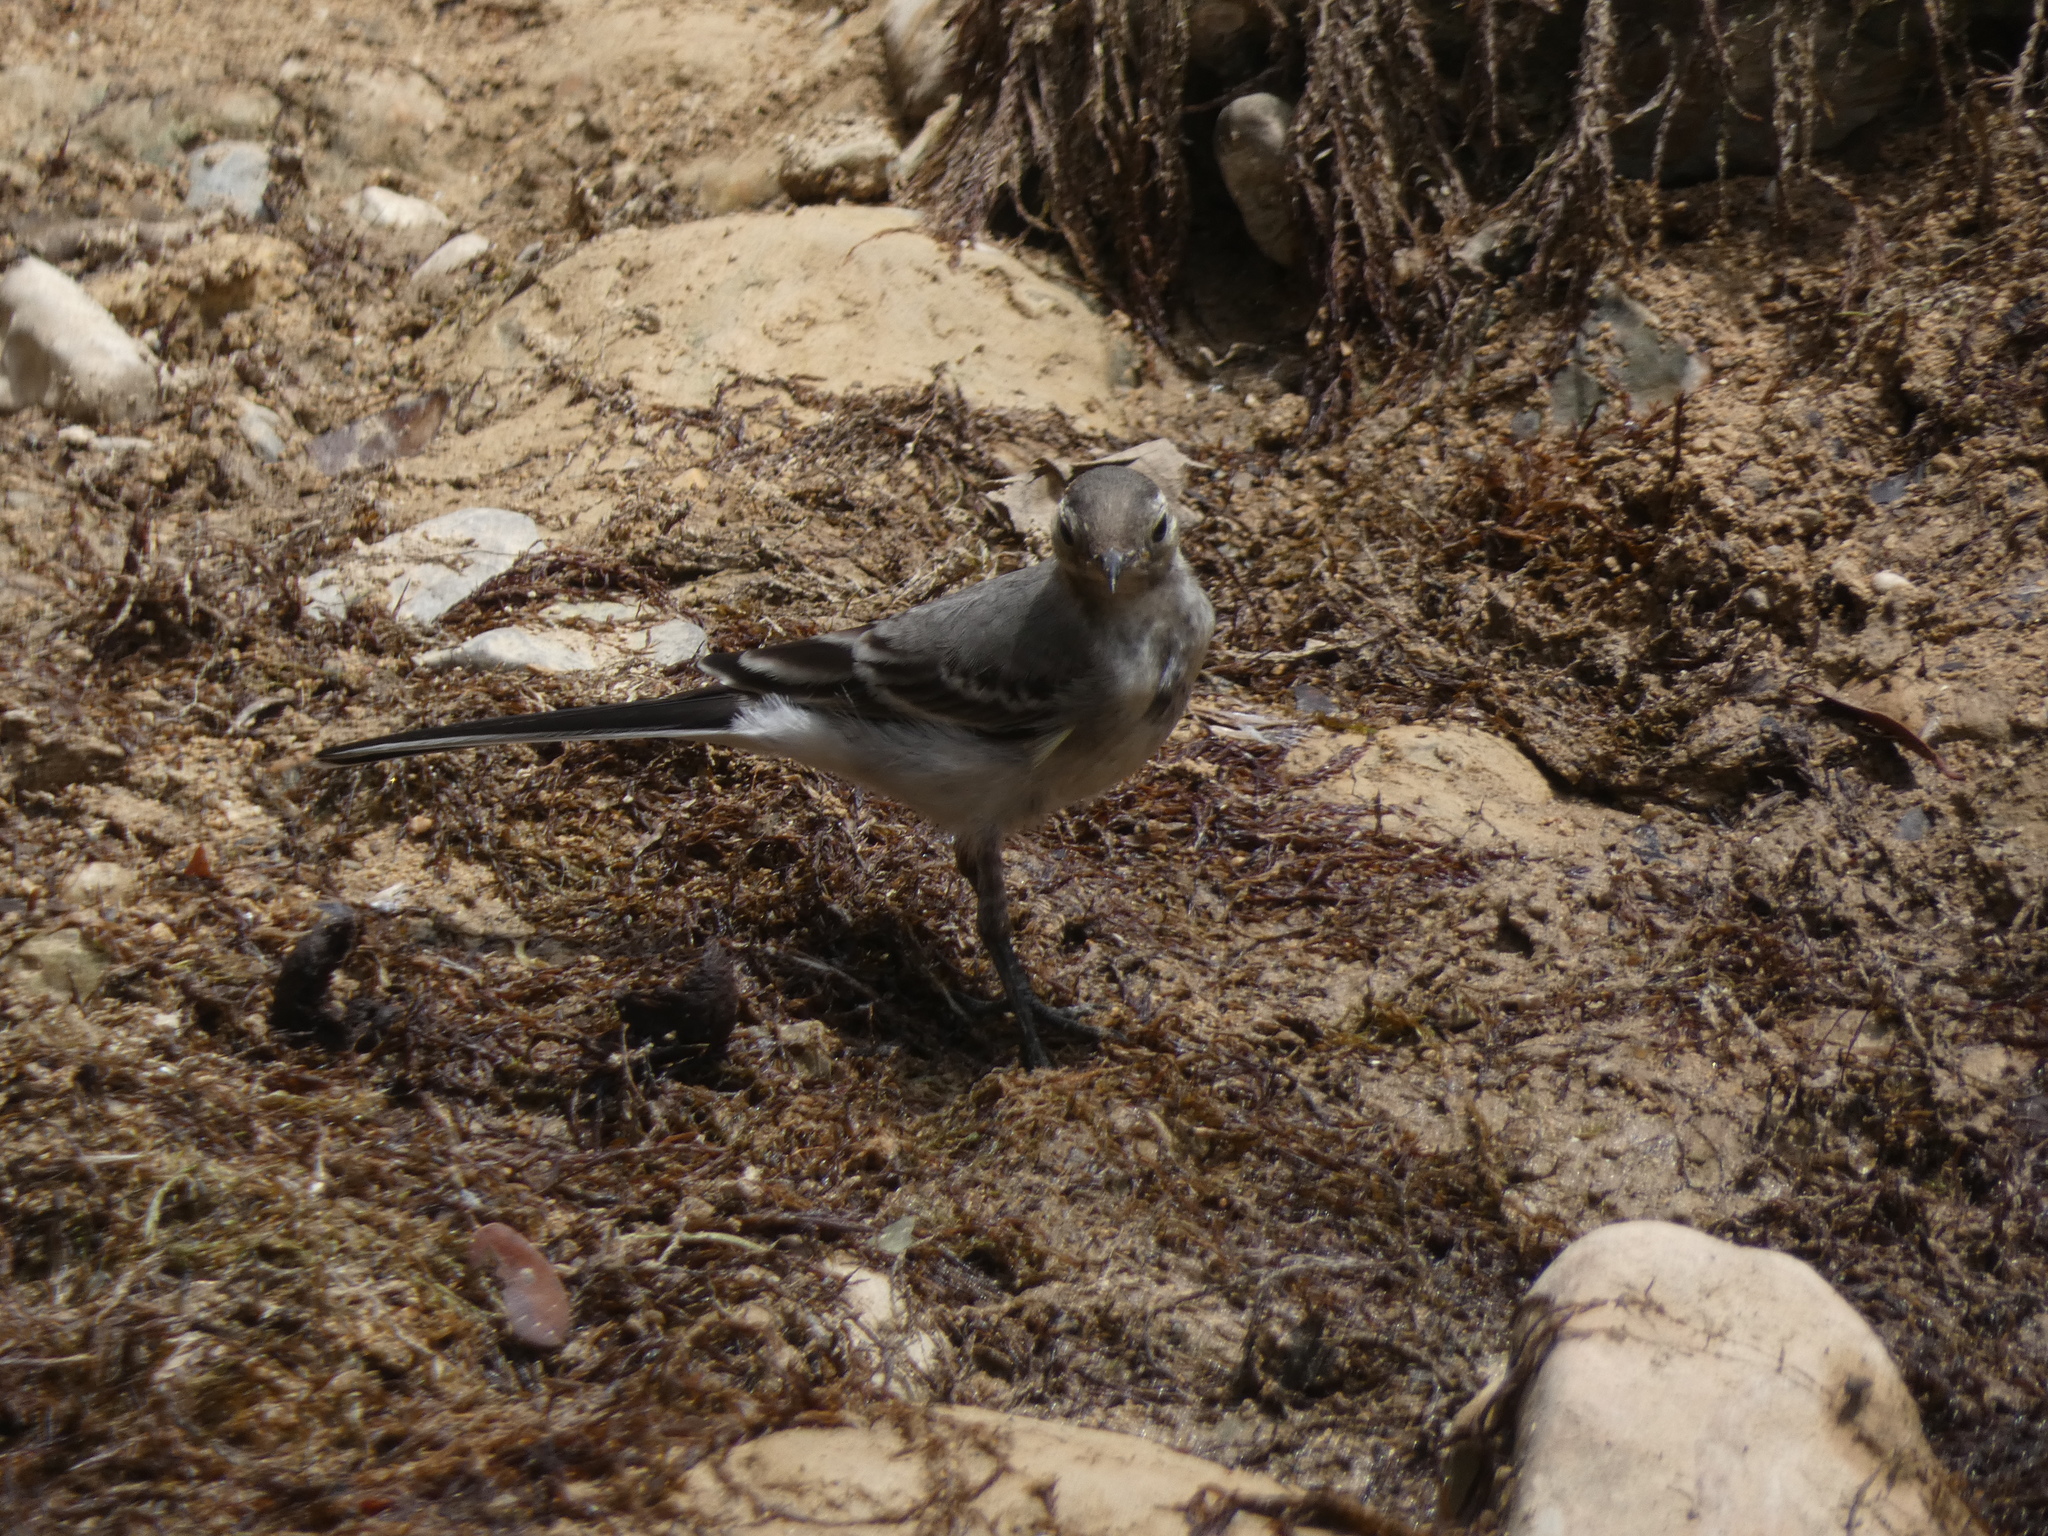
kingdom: Animalia
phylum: Chordata
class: Aves
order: Passeriformes
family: Motacillidae
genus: Motacilla
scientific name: Motacilla alba
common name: White wagtail
